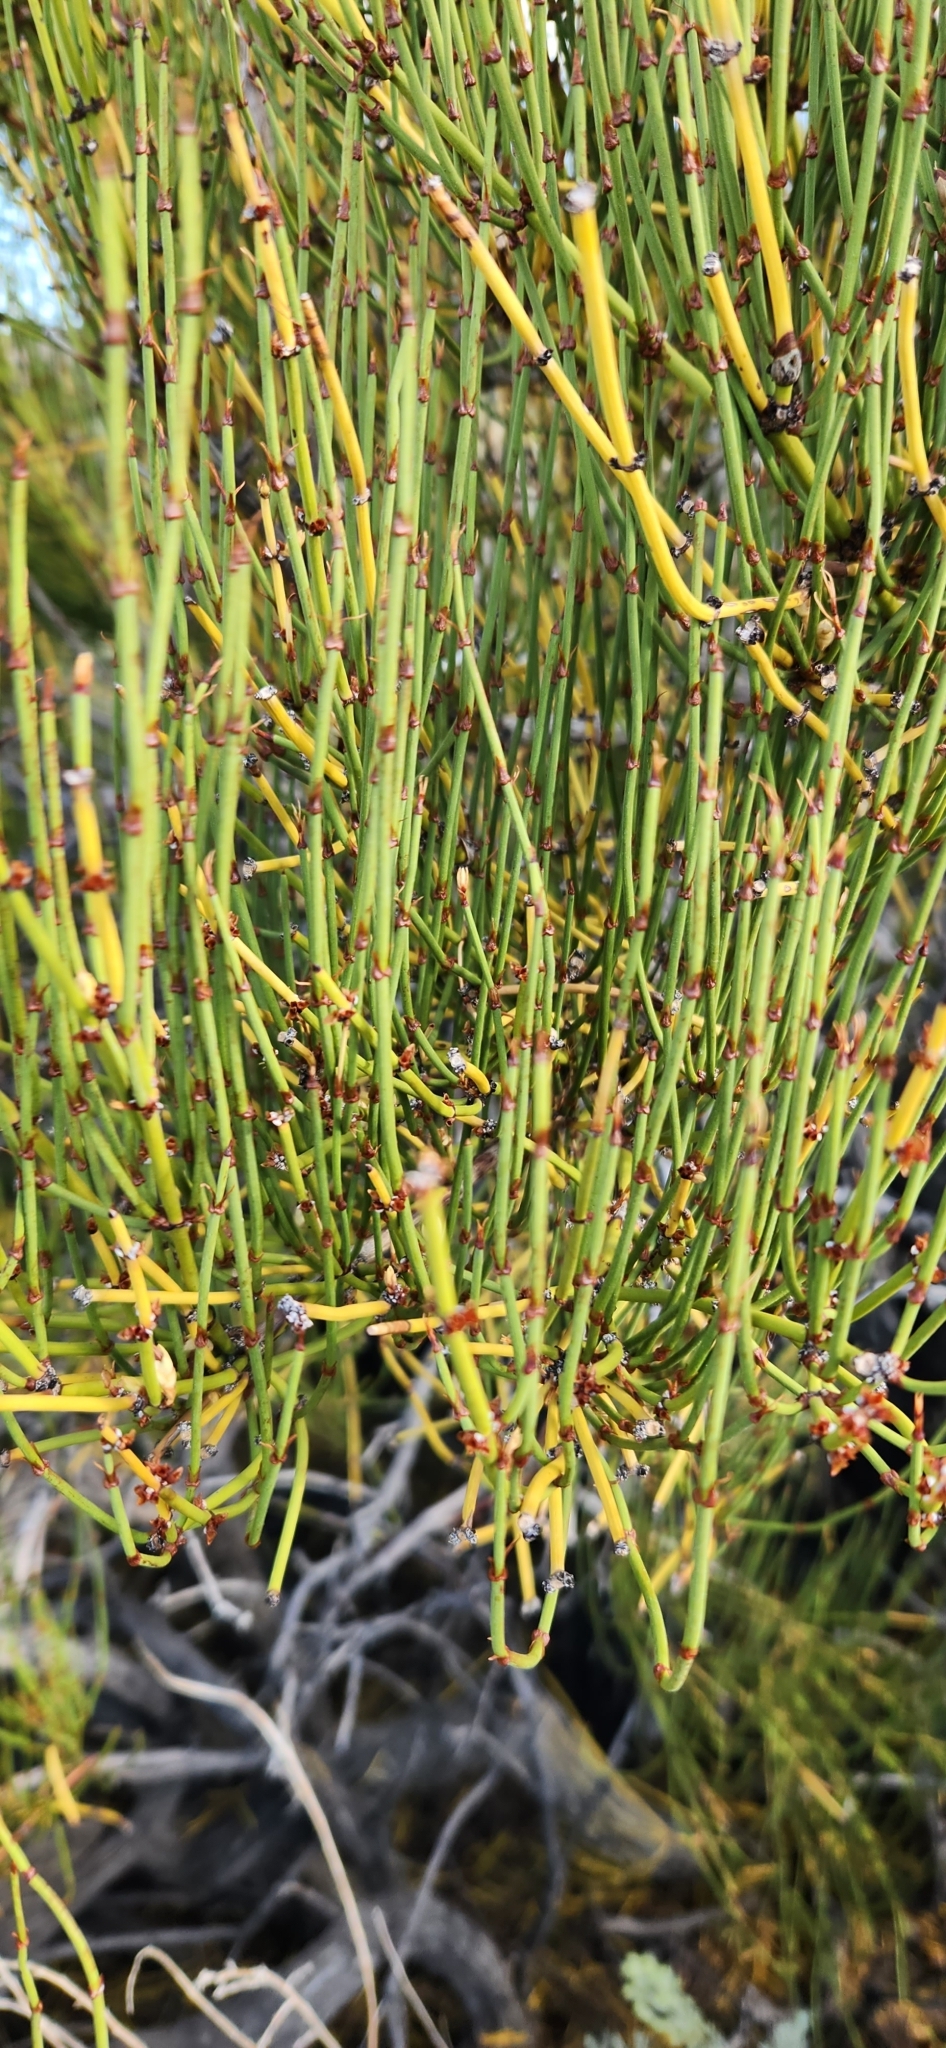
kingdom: Plantae
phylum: Tracheophyta
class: Gnetopsida
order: Ephedrales
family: Ephedraceae
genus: Ephedra
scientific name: Ephedra viridis
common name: Green ephedra
